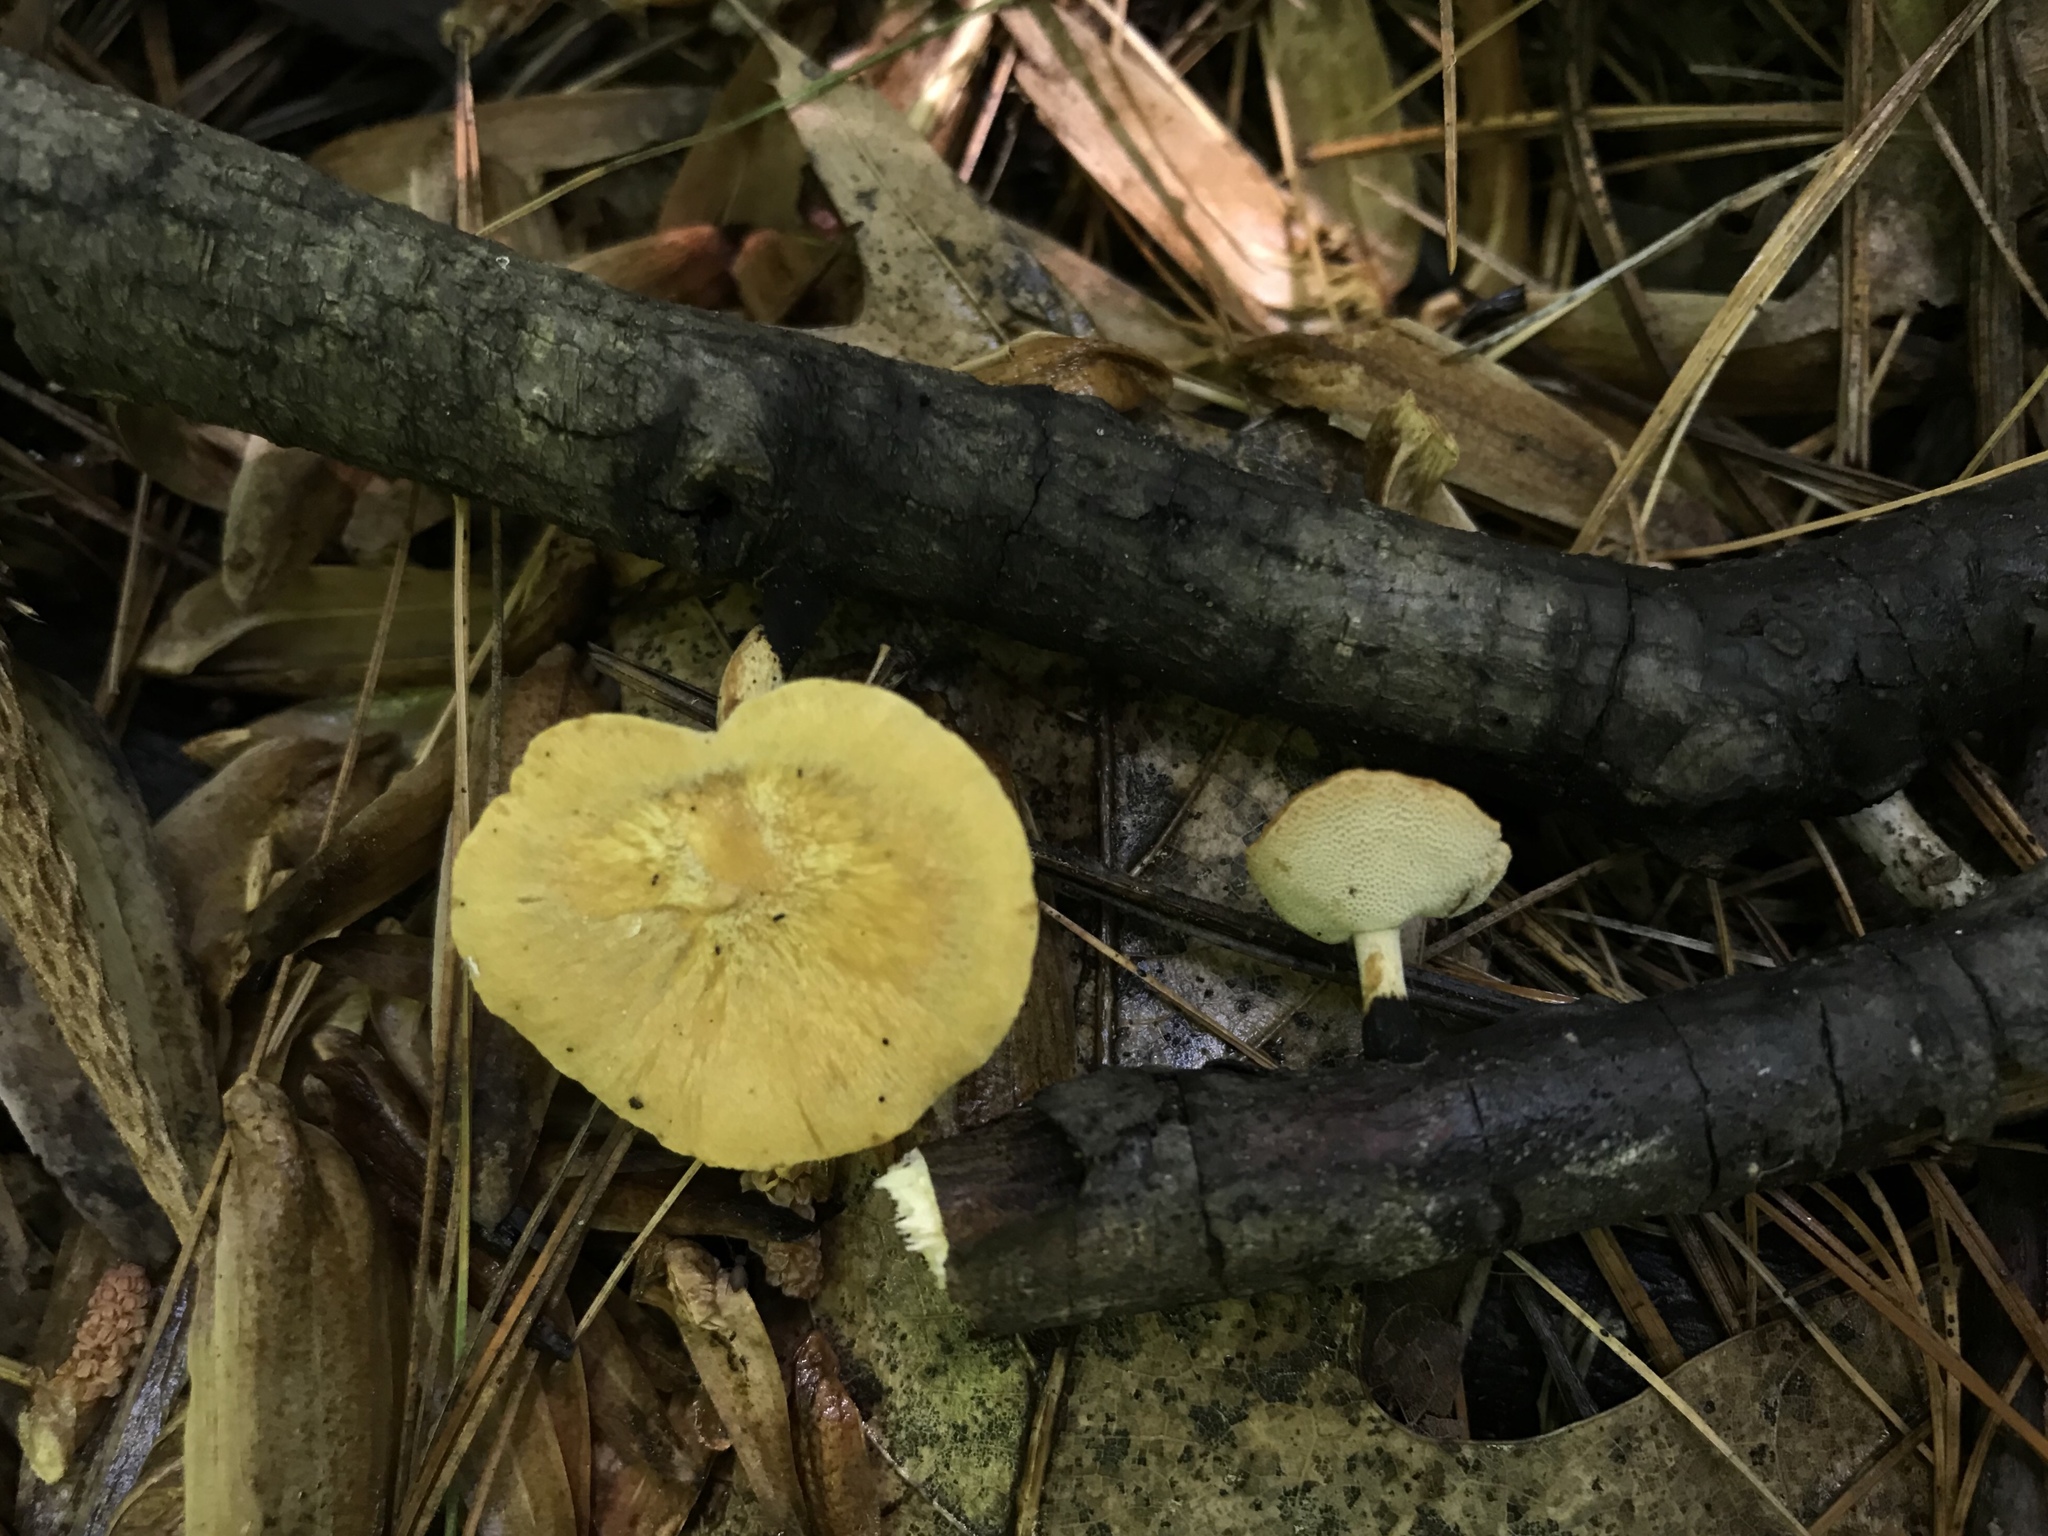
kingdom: Fungi
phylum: Basidiomycota
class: Agaricomycetes
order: Polyporales
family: Polyporaceae
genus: Cerioporus
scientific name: Cerioporus leptocephalus
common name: Blackfoot polypore
